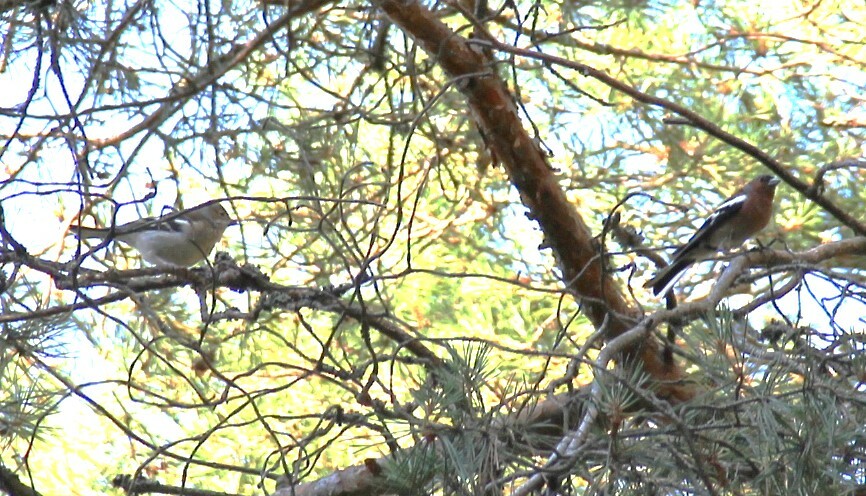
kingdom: Animalia
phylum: Chordata
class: Aves
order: Passeriformes
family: Fringillidae
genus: Fringilla
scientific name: Fringilla coelebs
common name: Common chaffinch
